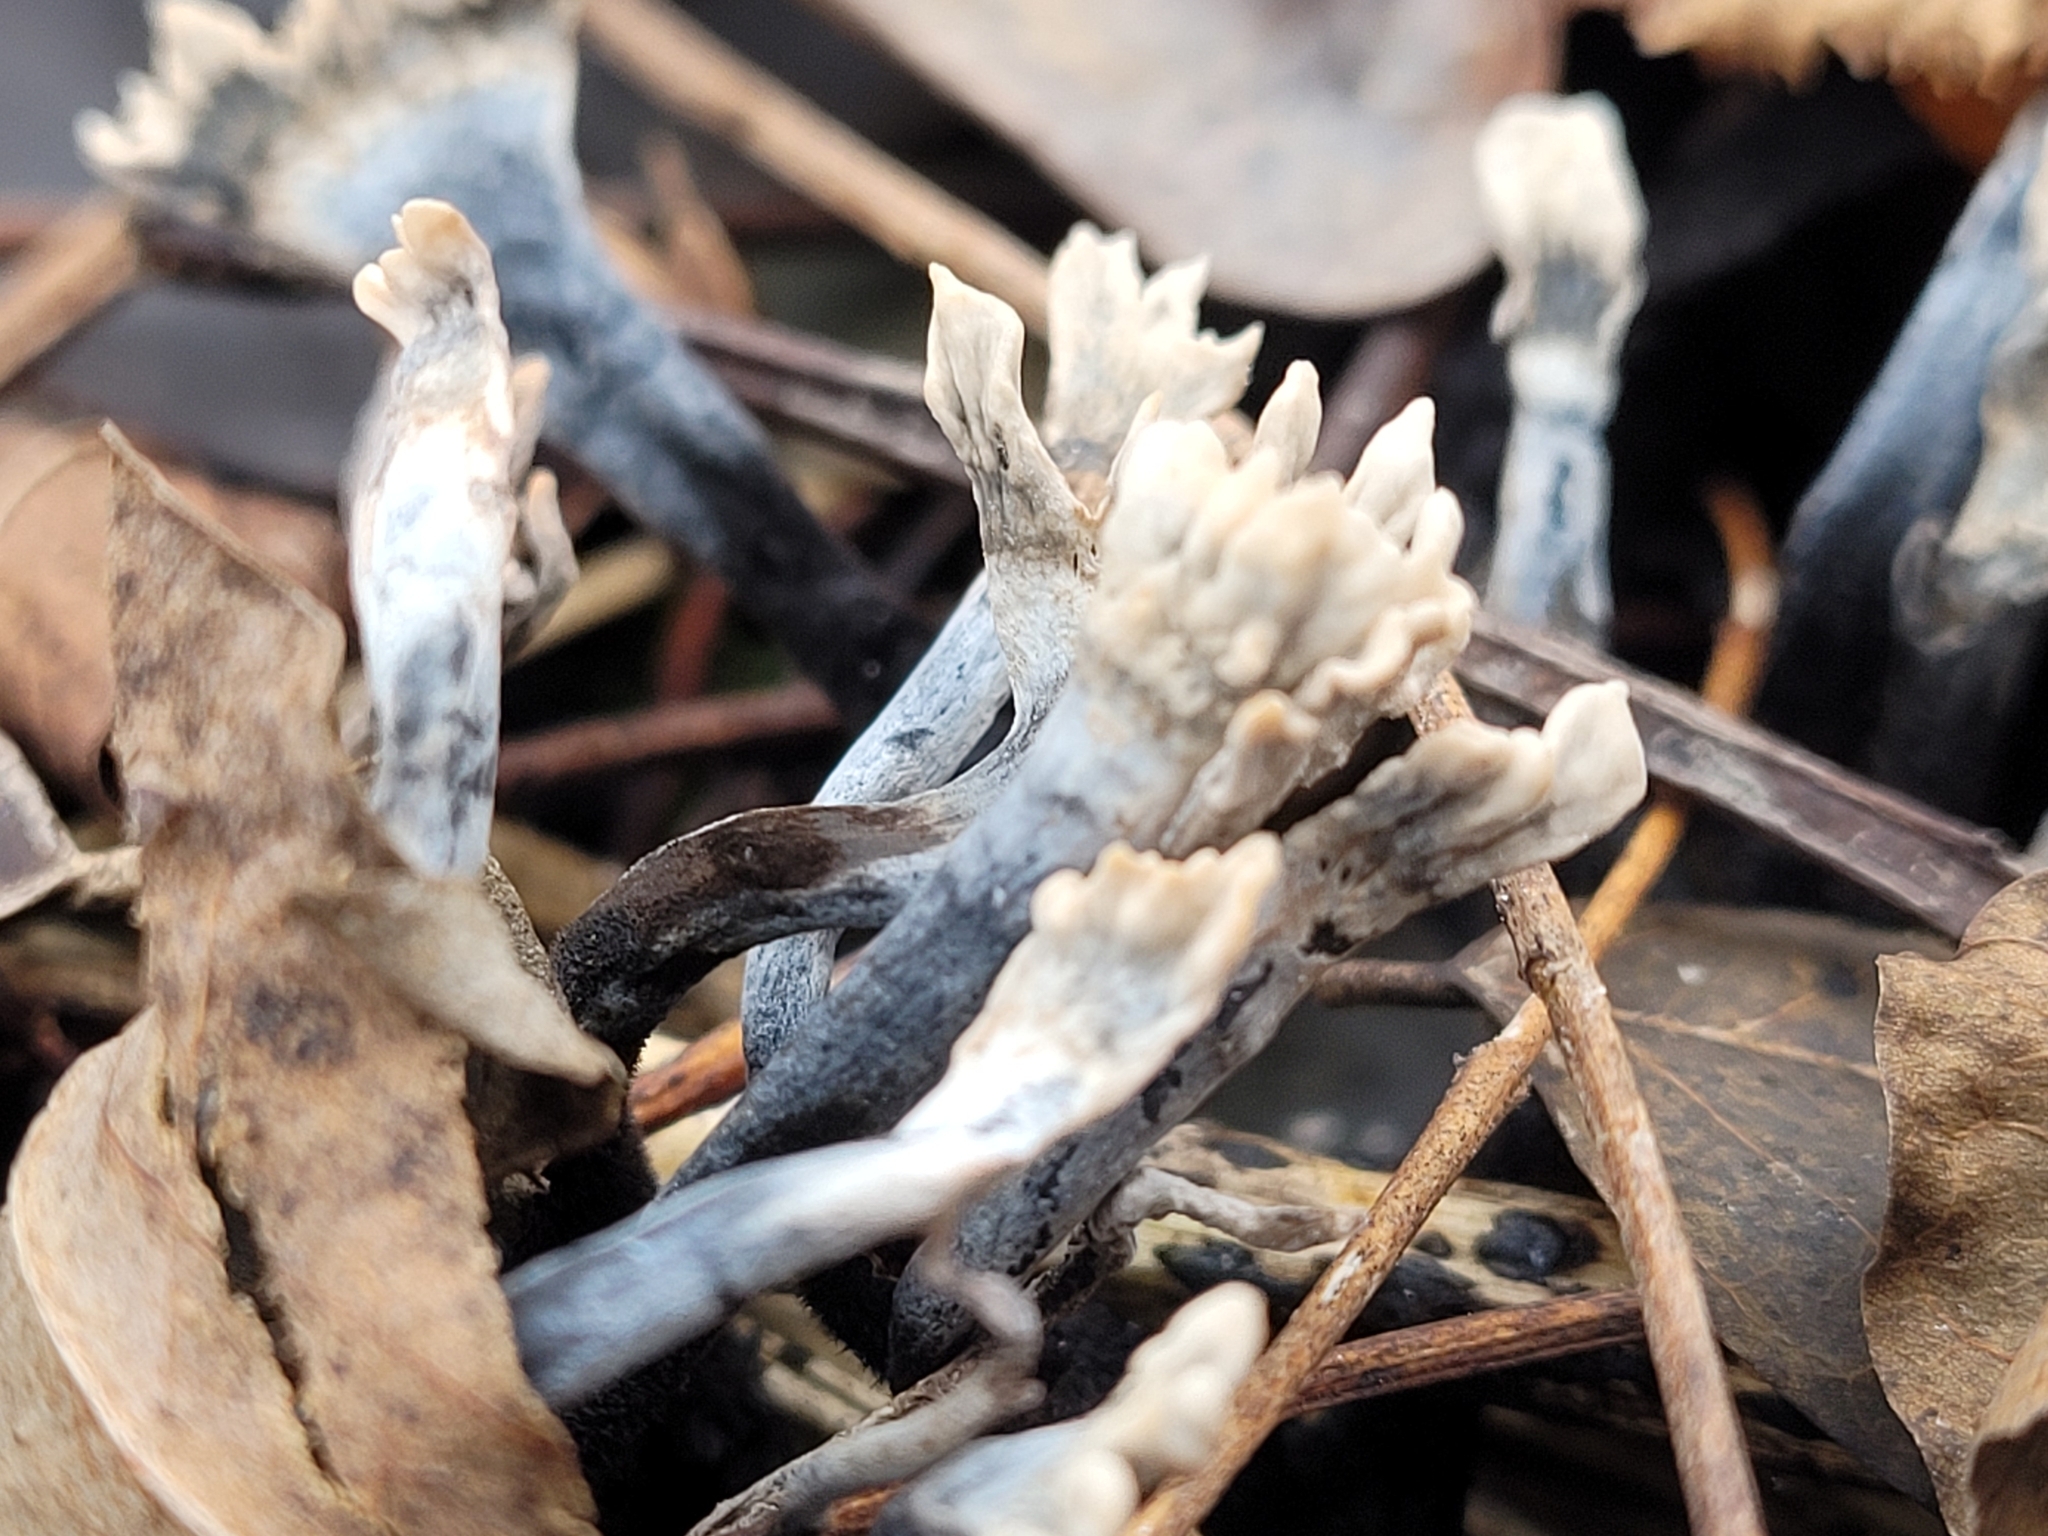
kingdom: Fungi
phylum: Ascomycota
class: Sordariomycetes
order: Xylariales
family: Xylariaceae
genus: Xylaria
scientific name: Xylaria hypoxylon
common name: Candle-snuff fungus
